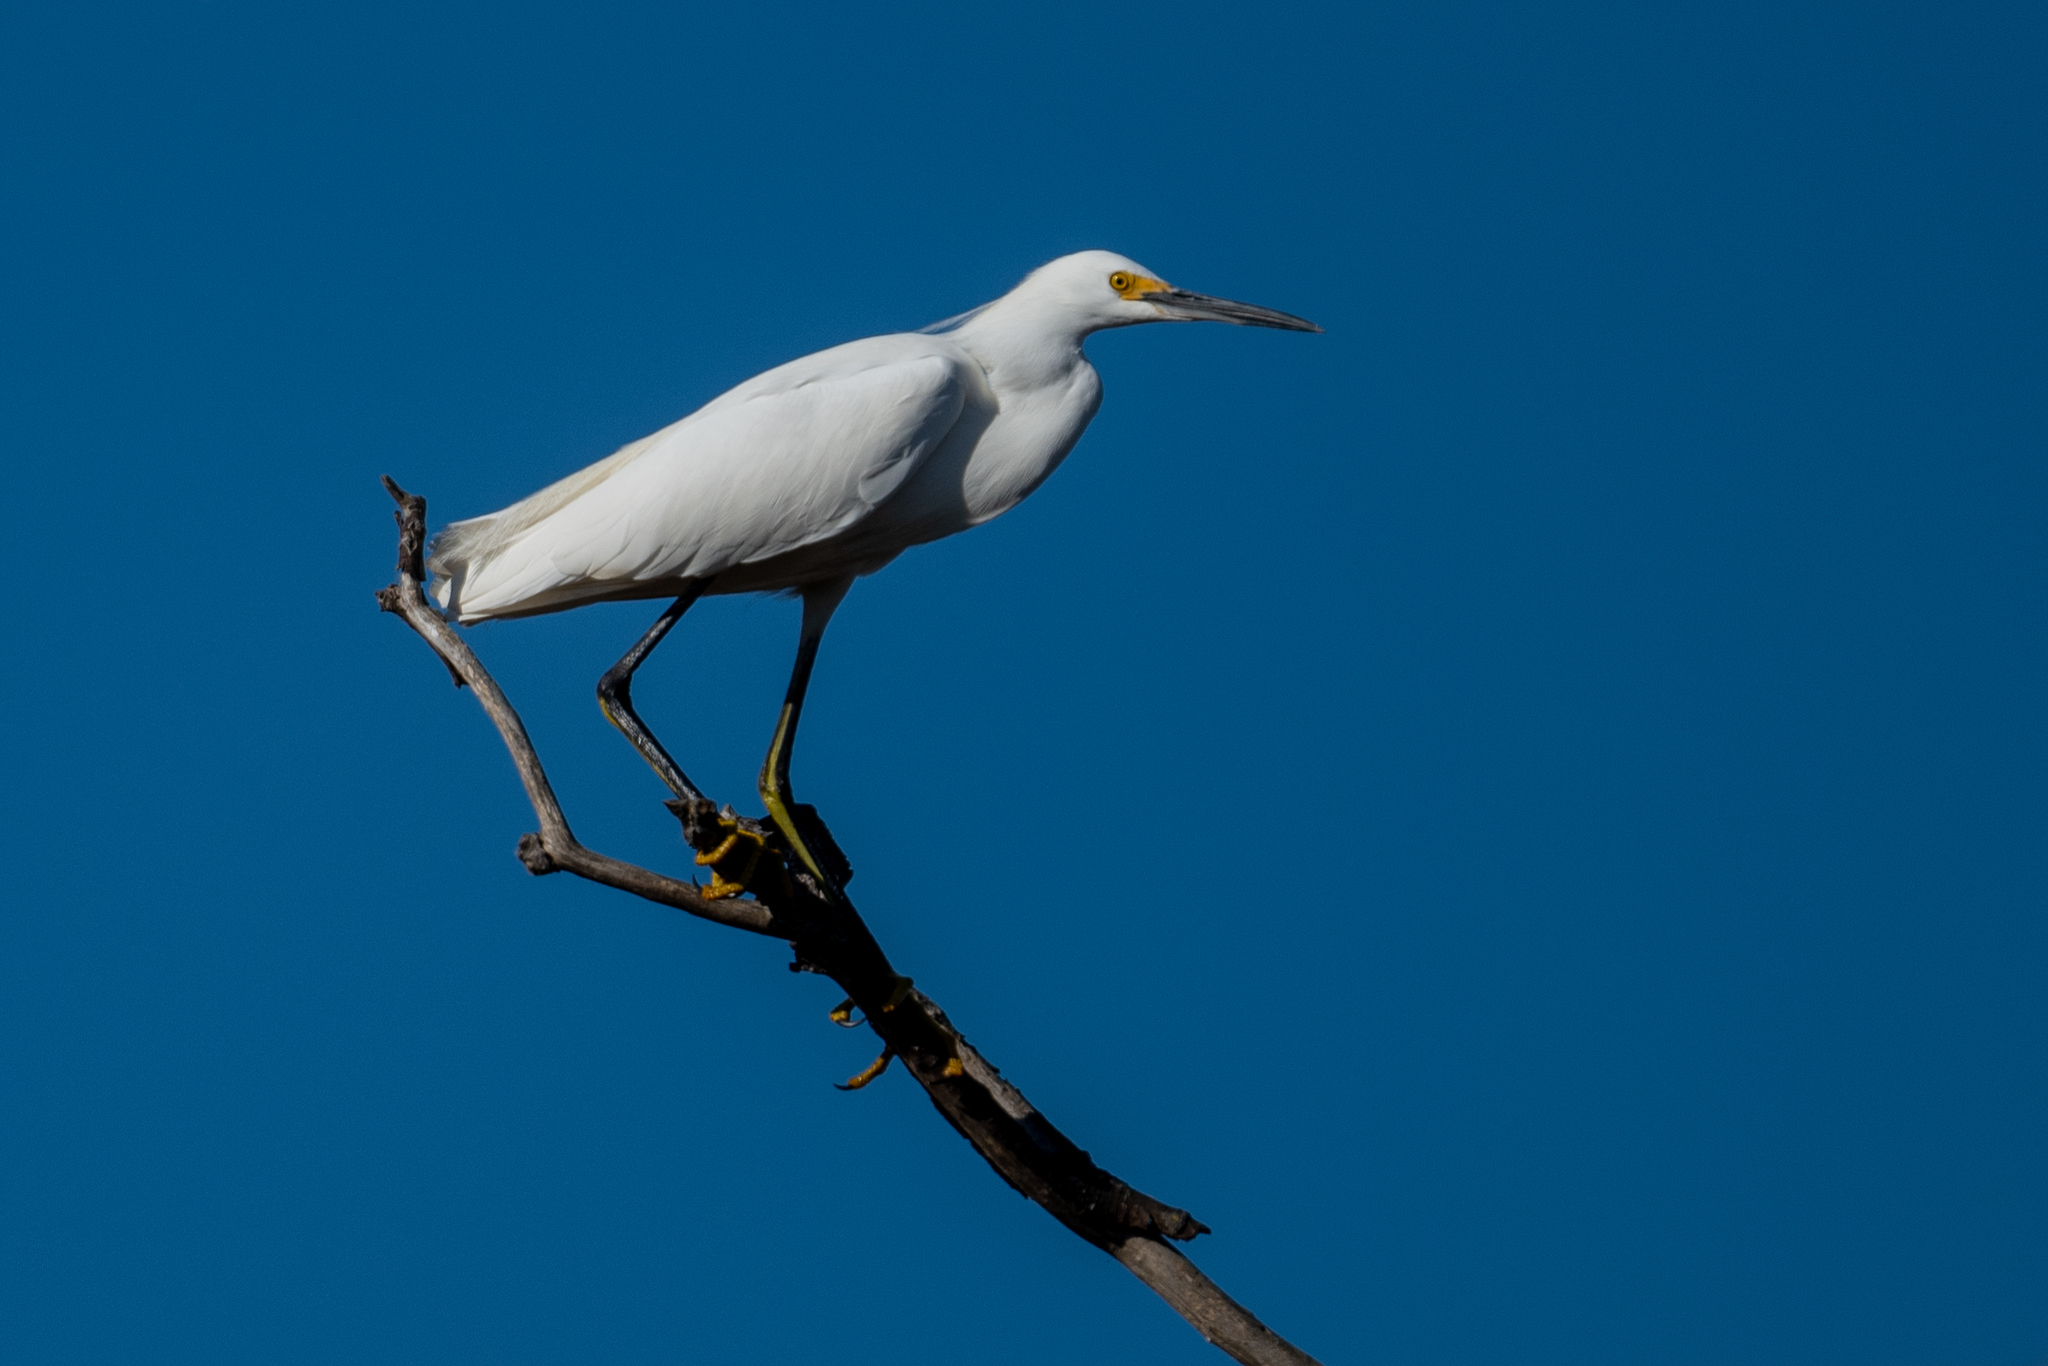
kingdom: Animalia
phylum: Chordata
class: Aves
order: Pelecaniformes
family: Ardeidae
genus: Egretta
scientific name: Egretta thula
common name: Snowy egret
